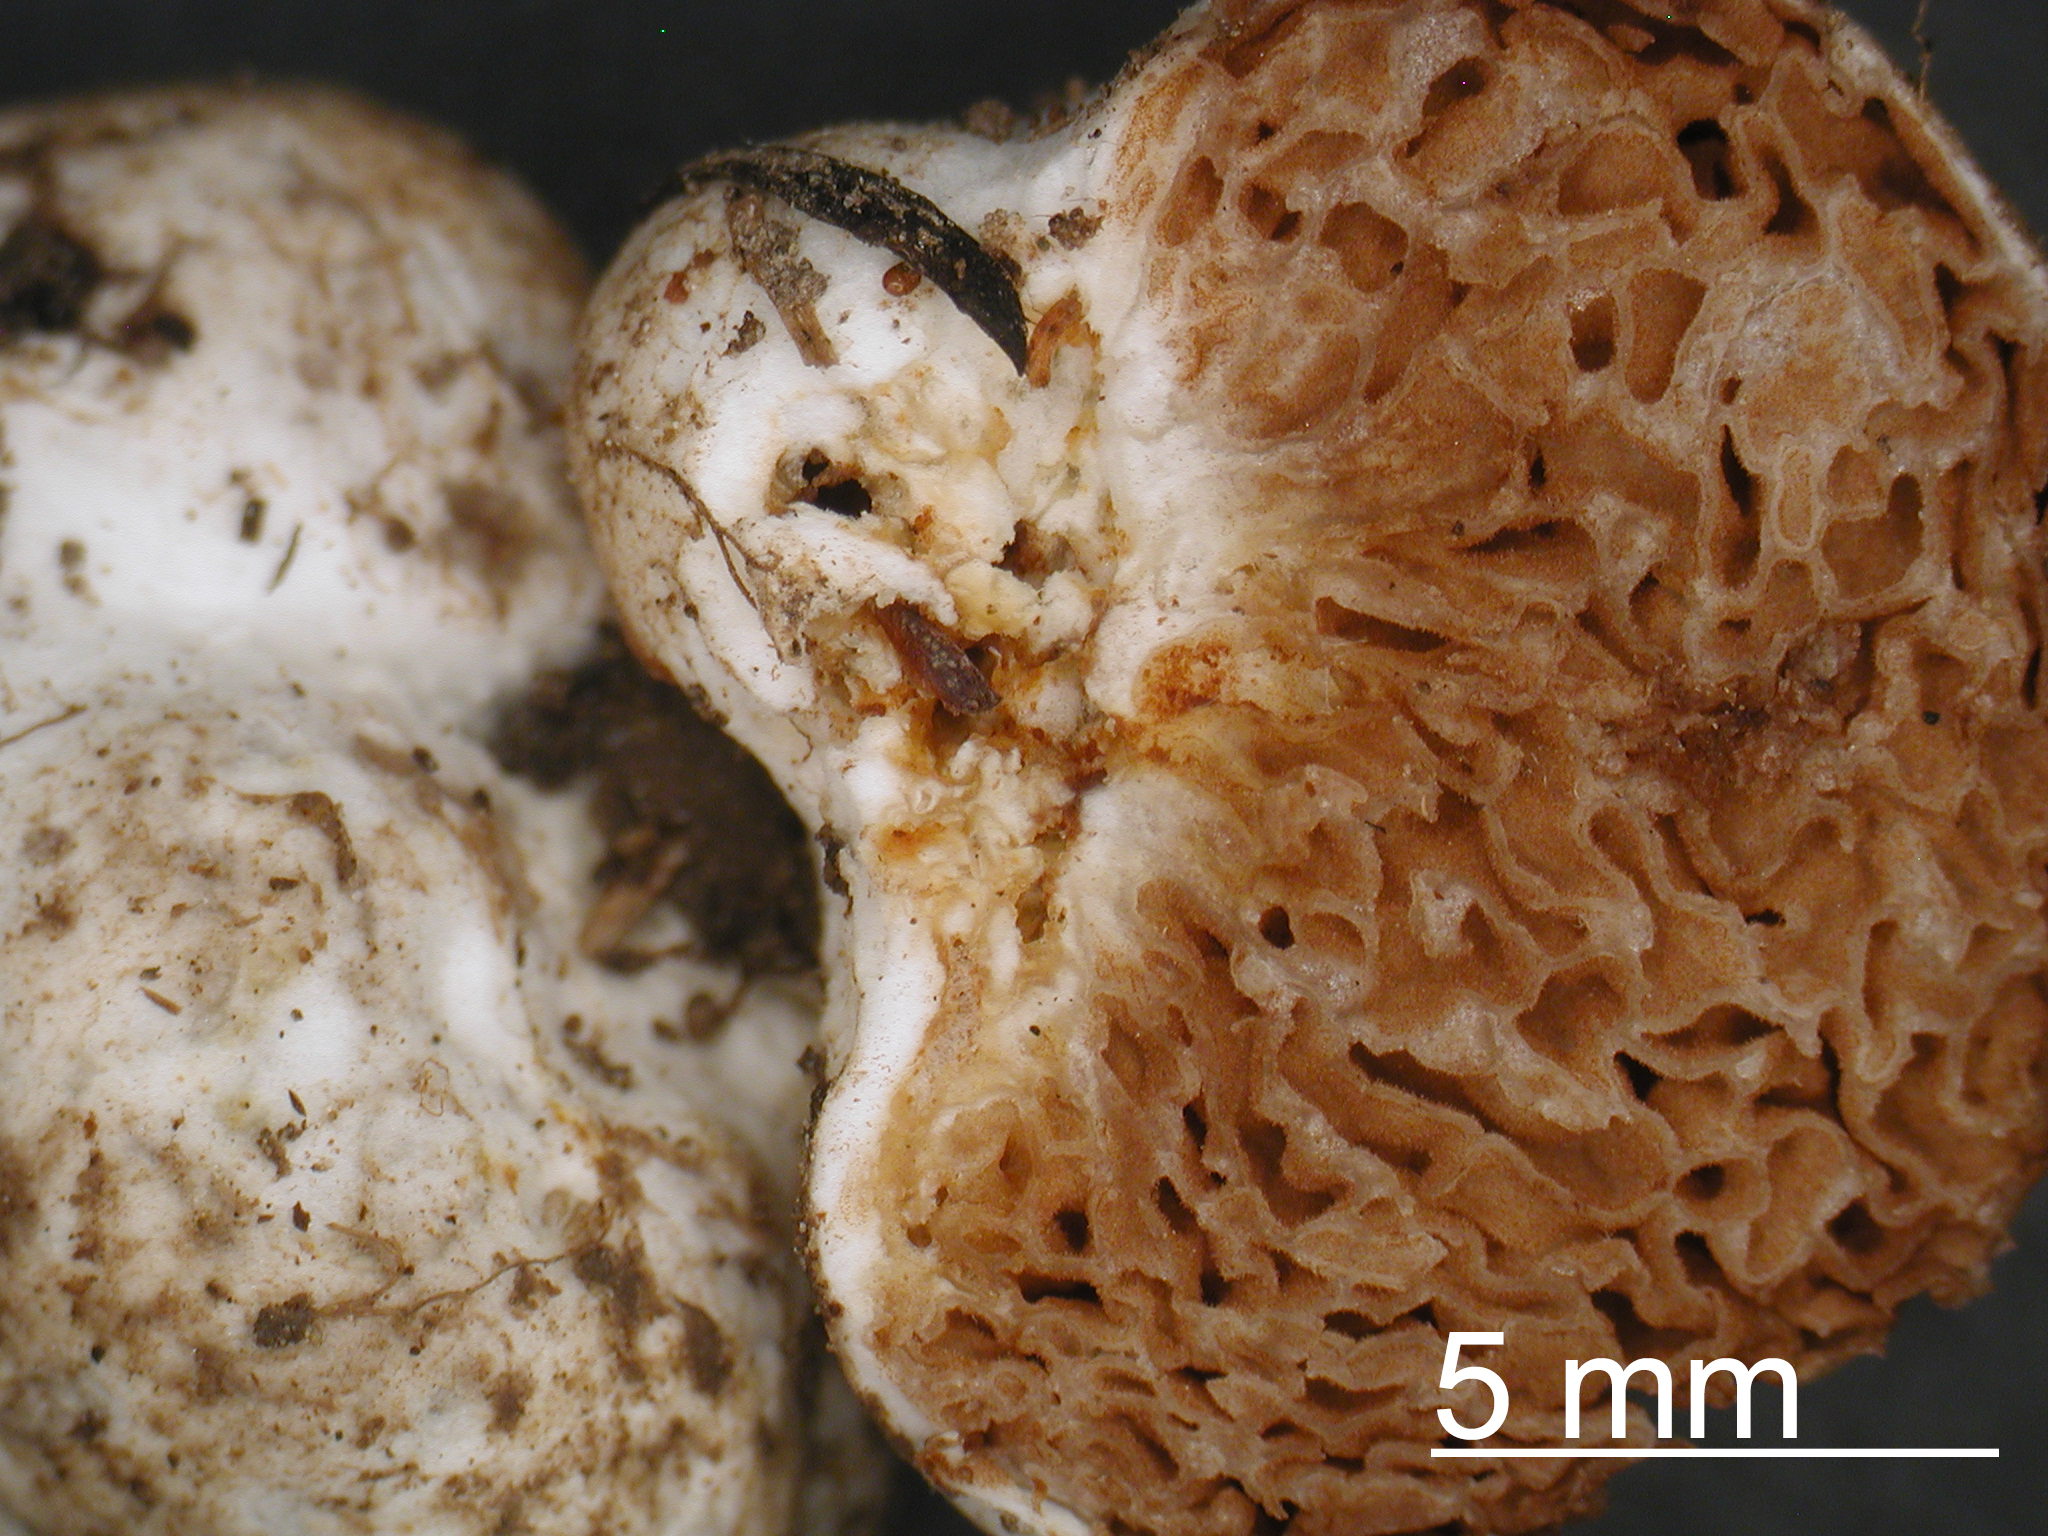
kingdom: Fungi
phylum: Basidiomycota
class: Agaricomycetes
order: Agaricales
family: Bolbitiaceae
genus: Descolea
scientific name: Descolea alba
